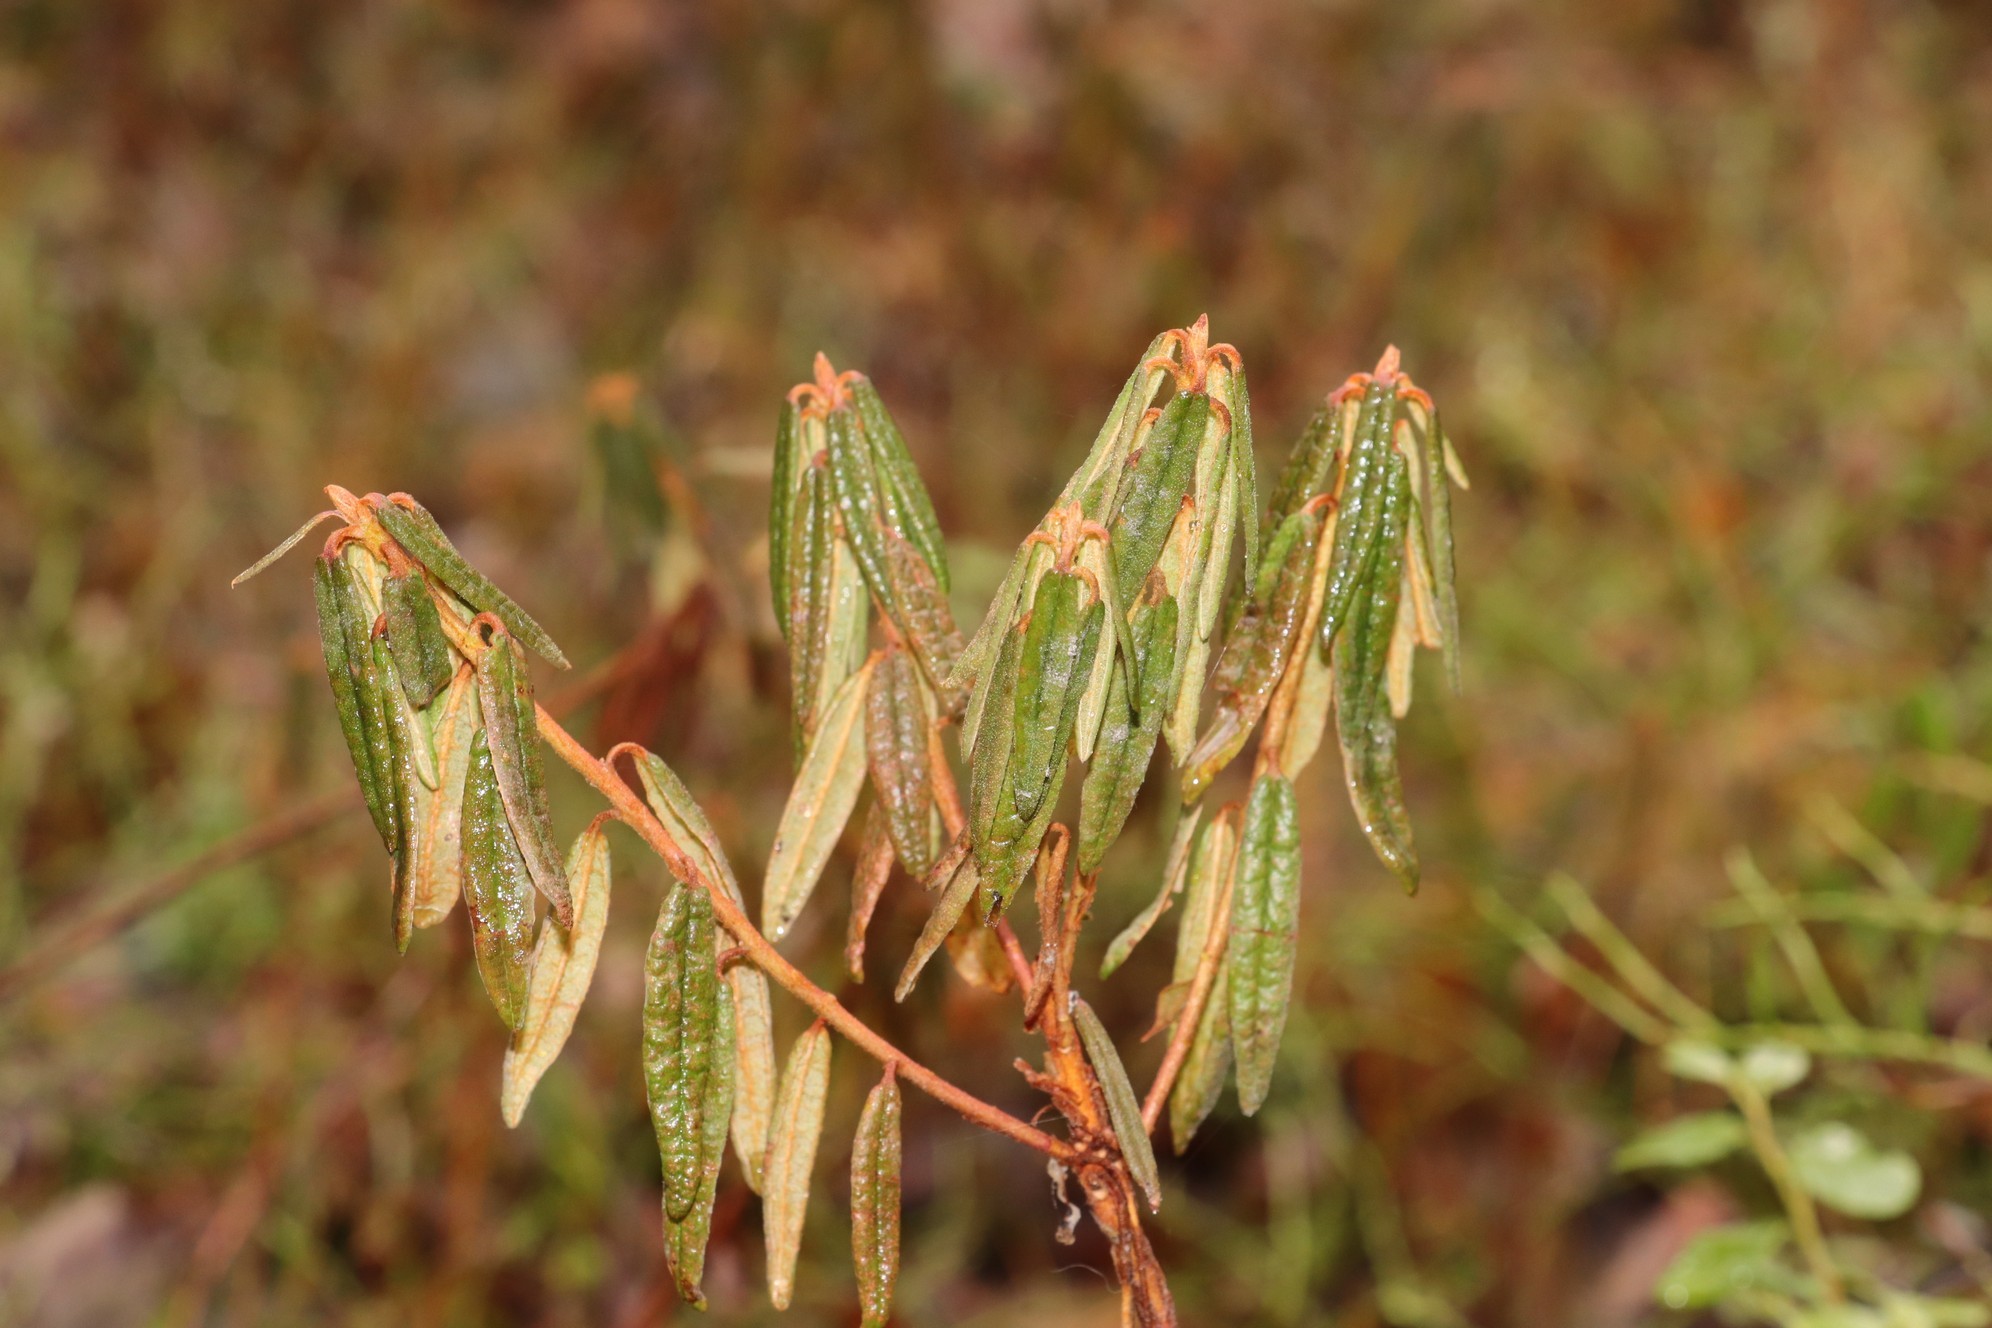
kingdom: Plantae
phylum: Tracheophyta
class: Magnoliopsida
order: Ericales
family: Ericaceae
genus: Rhododendron
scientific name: Rhododendron tomentosum
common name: Marsh labrador tea
